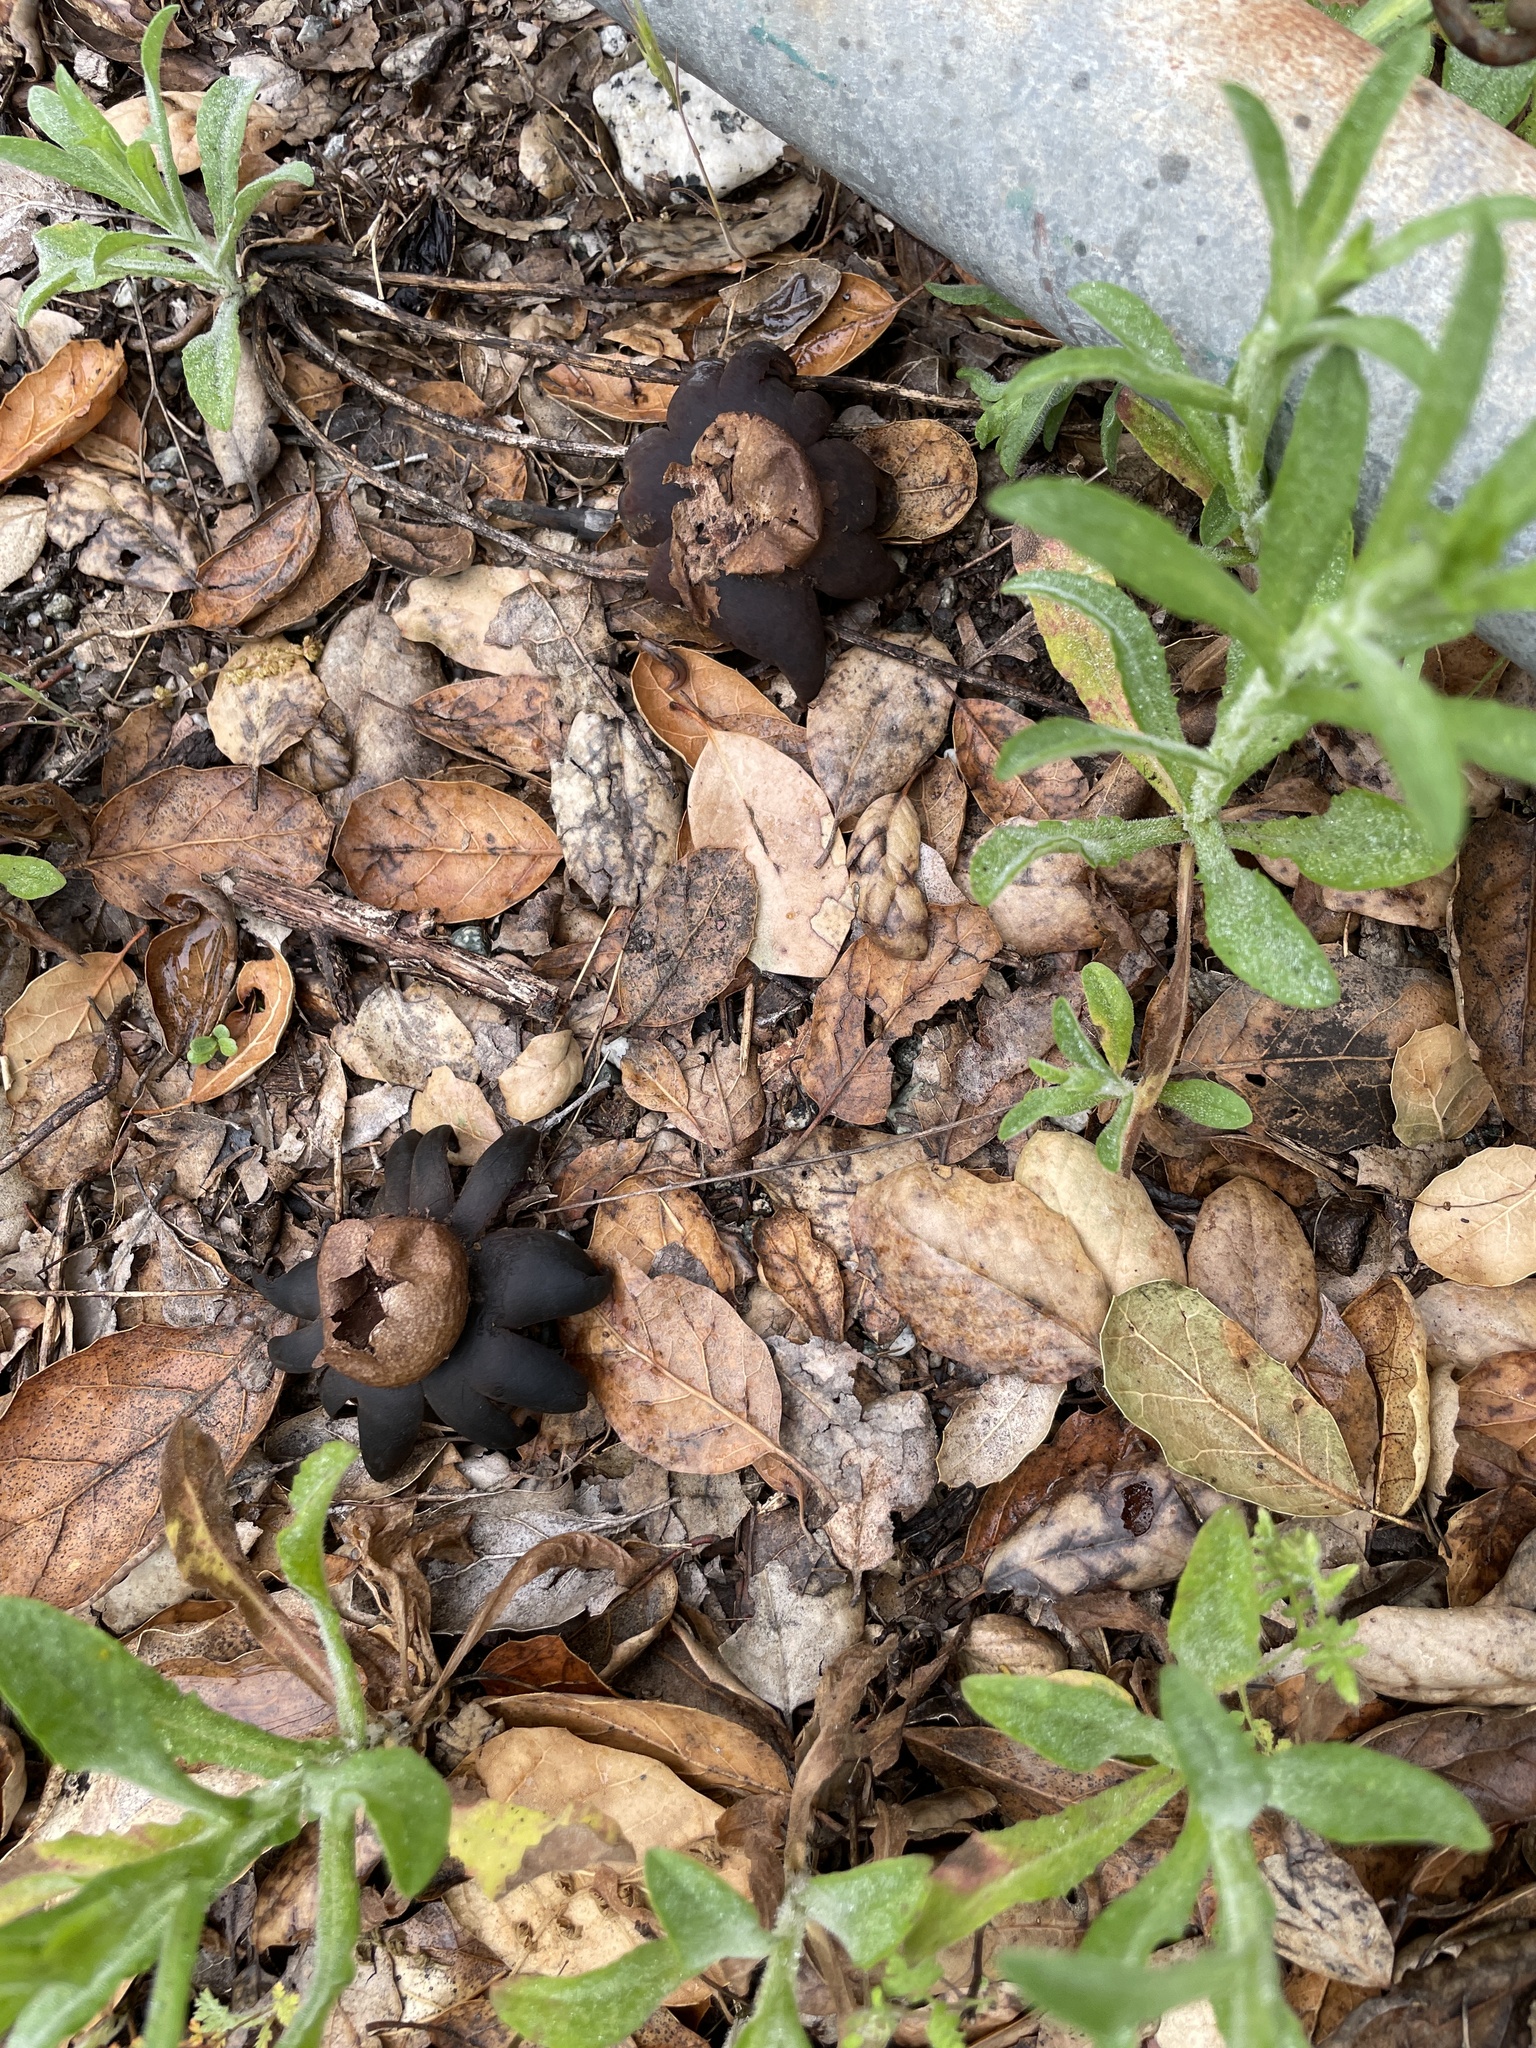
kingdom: Fungi
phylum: Basidiomycota
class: Agaricomycetes
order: Boletales
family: Diplocystidiaceae
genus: Astraeus
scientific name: Astraeus pteridis
